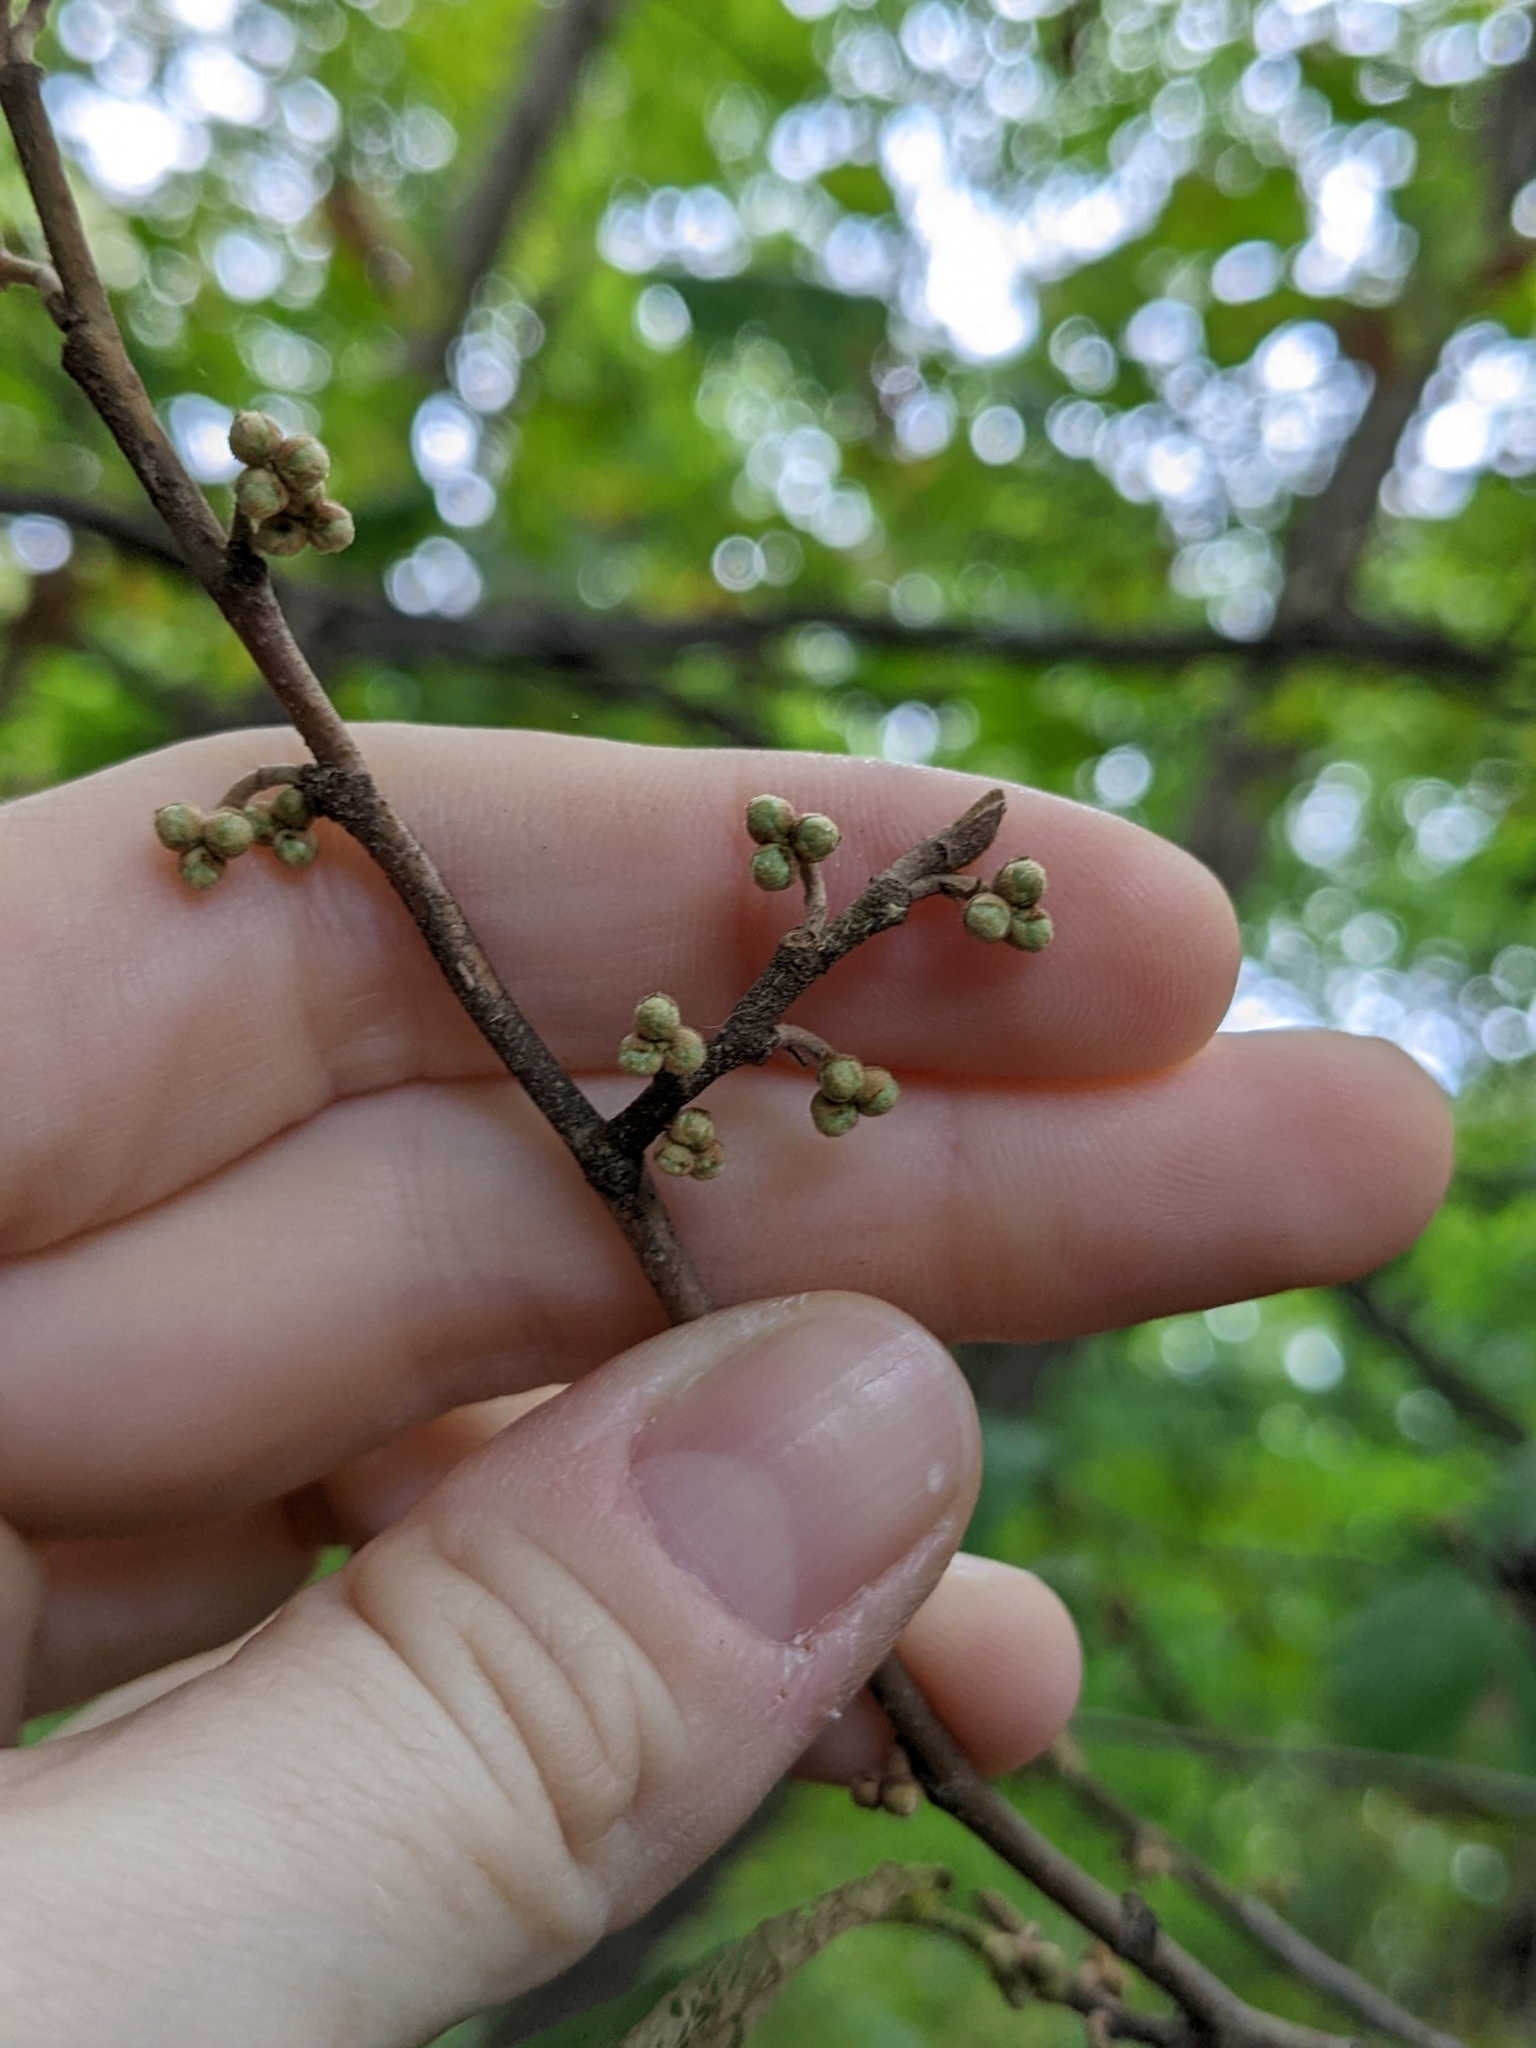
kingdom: Plantae
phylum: Tracheophyta
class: Magnoliopsida
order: Saxifragales
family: Hamamelidaceae
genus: Hamamelis
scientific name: Hamamelis virginiana
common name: Witch-hazel
